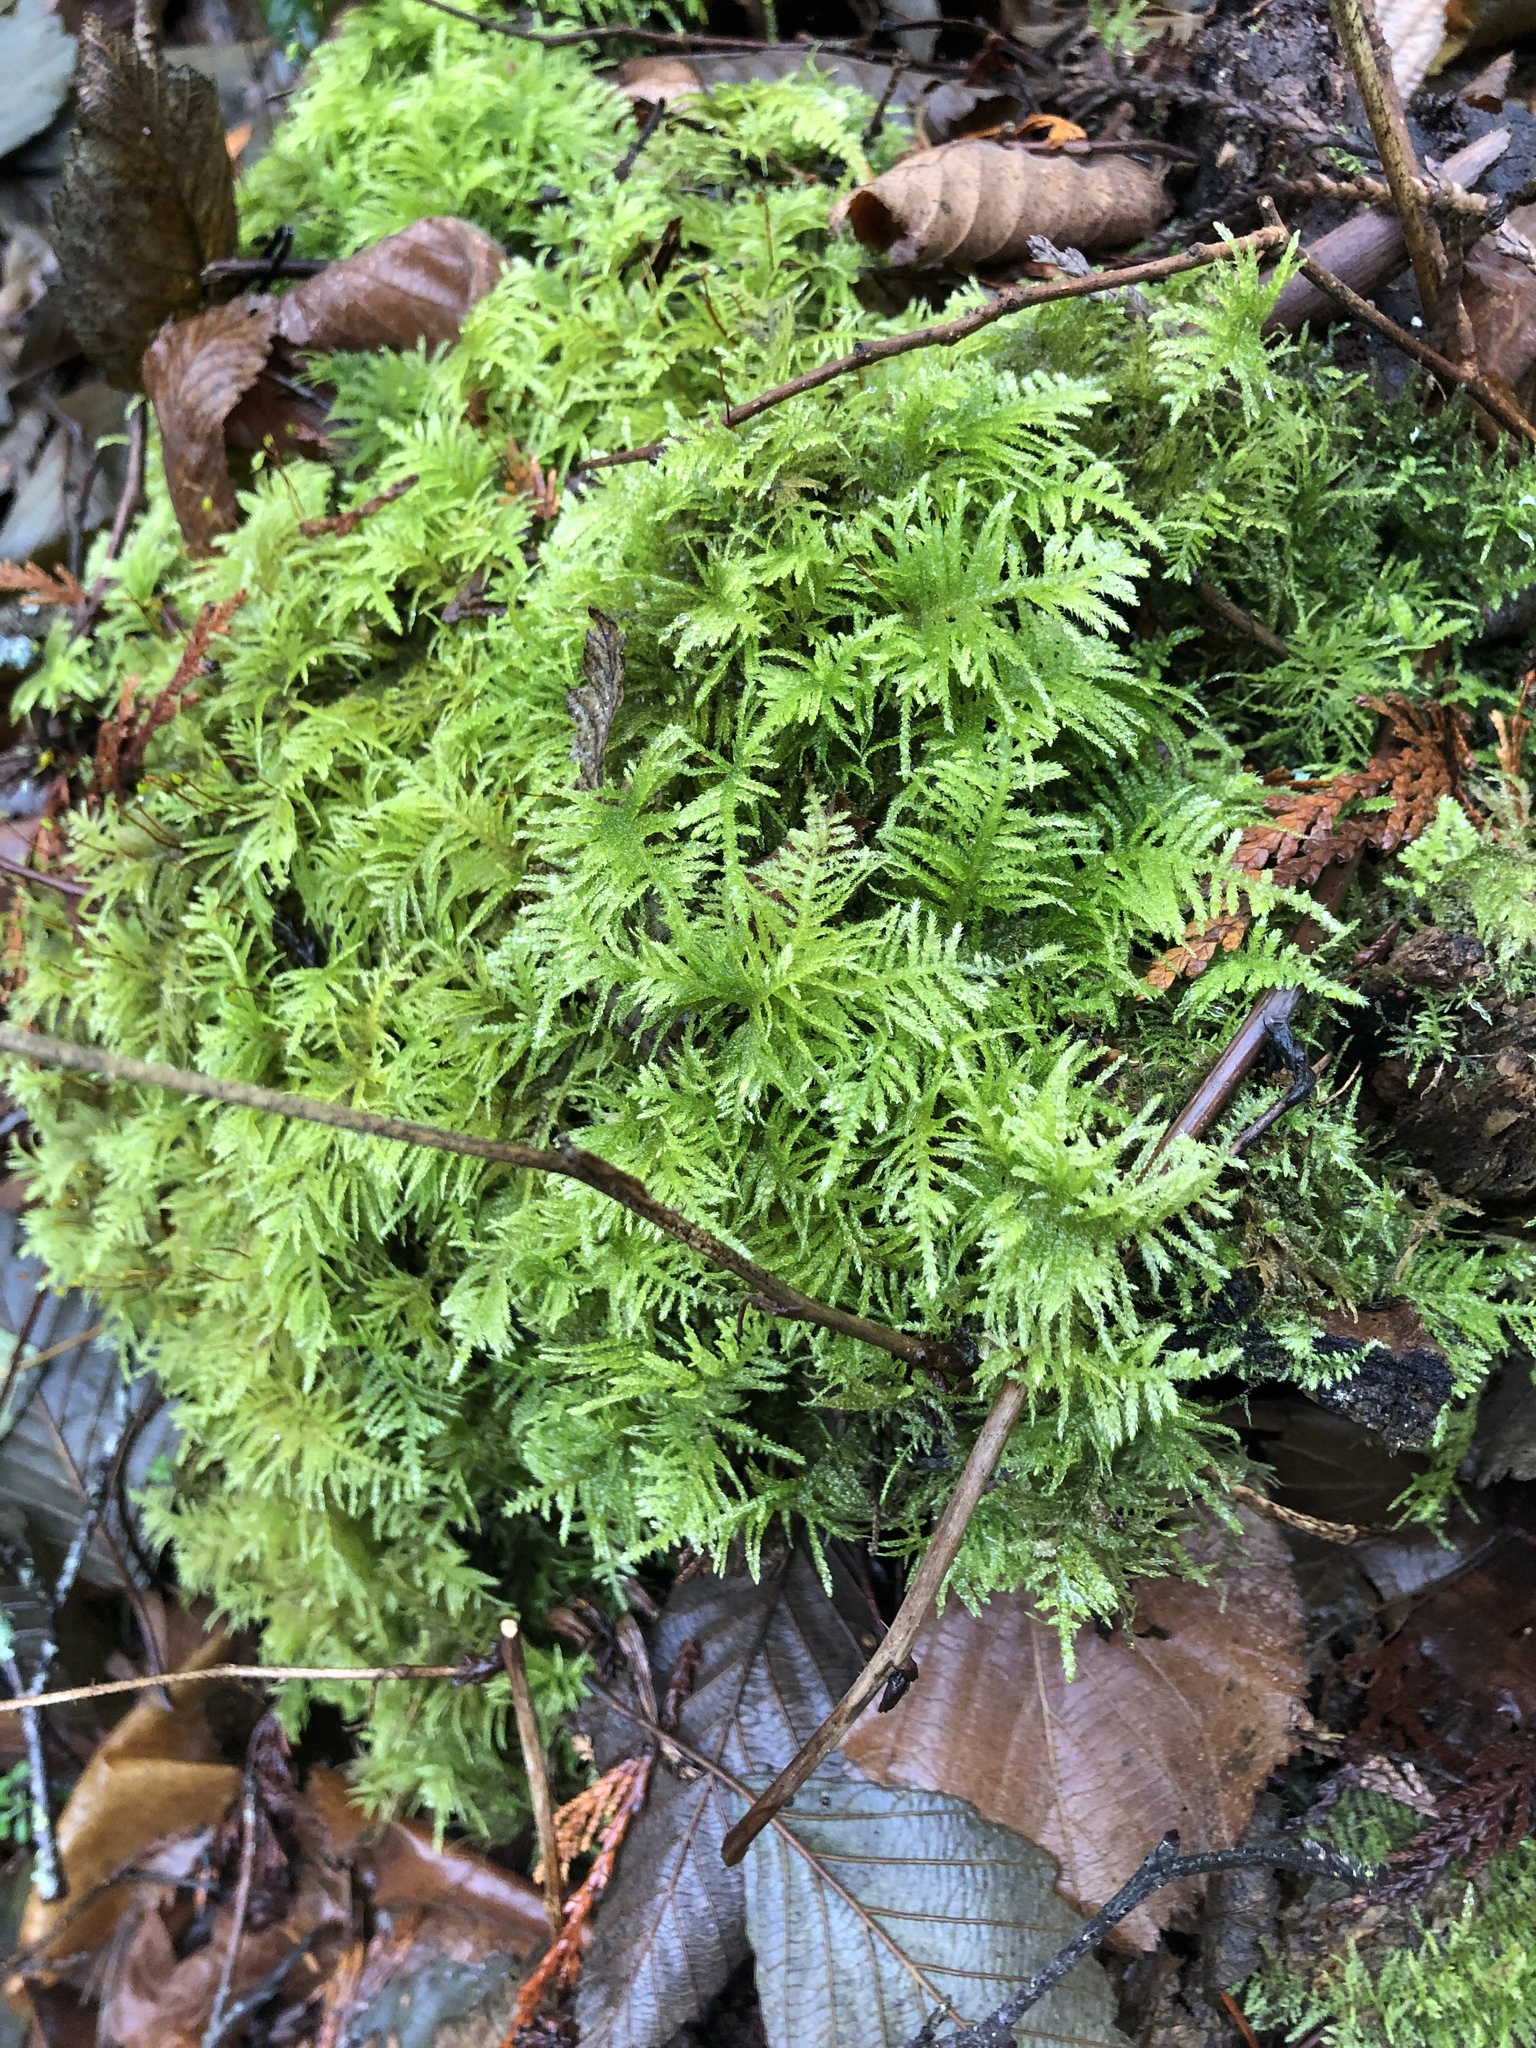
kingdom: Plantae
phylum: Bryophyta
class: Bryopsida
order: Hypnales
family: Brachytheciaceae
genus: Kindbergia
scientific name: Kindbergia oregana
